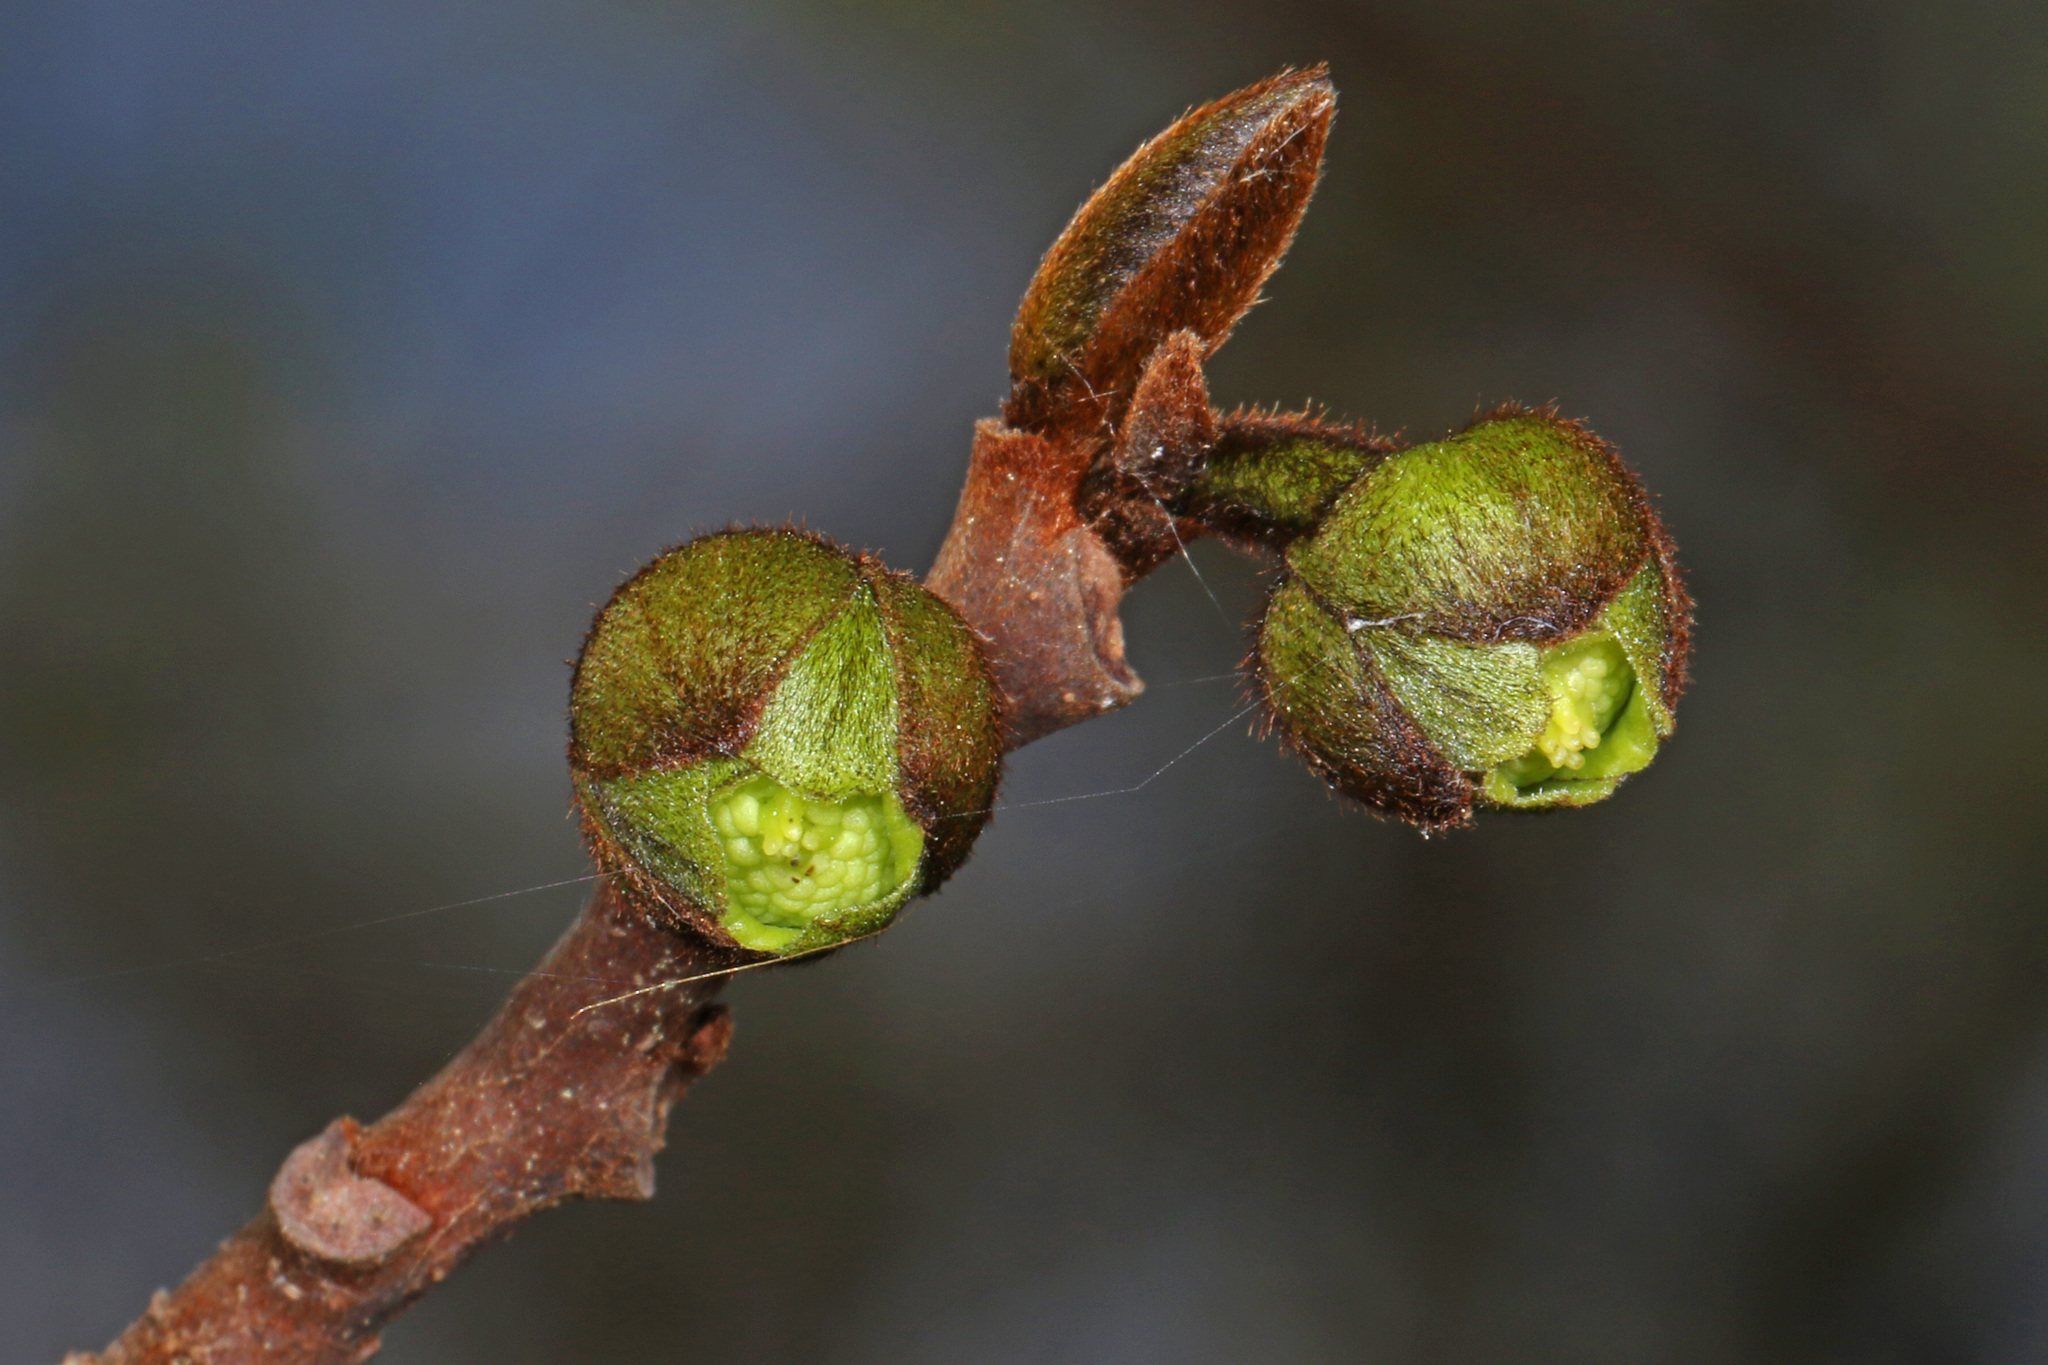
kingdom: Plantae
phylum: Tracheophyta
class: Magnoliopsida
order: Magnoliales
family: Annonaceae
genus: Asimina
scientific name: Asimina triloba
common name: Dog-banana
